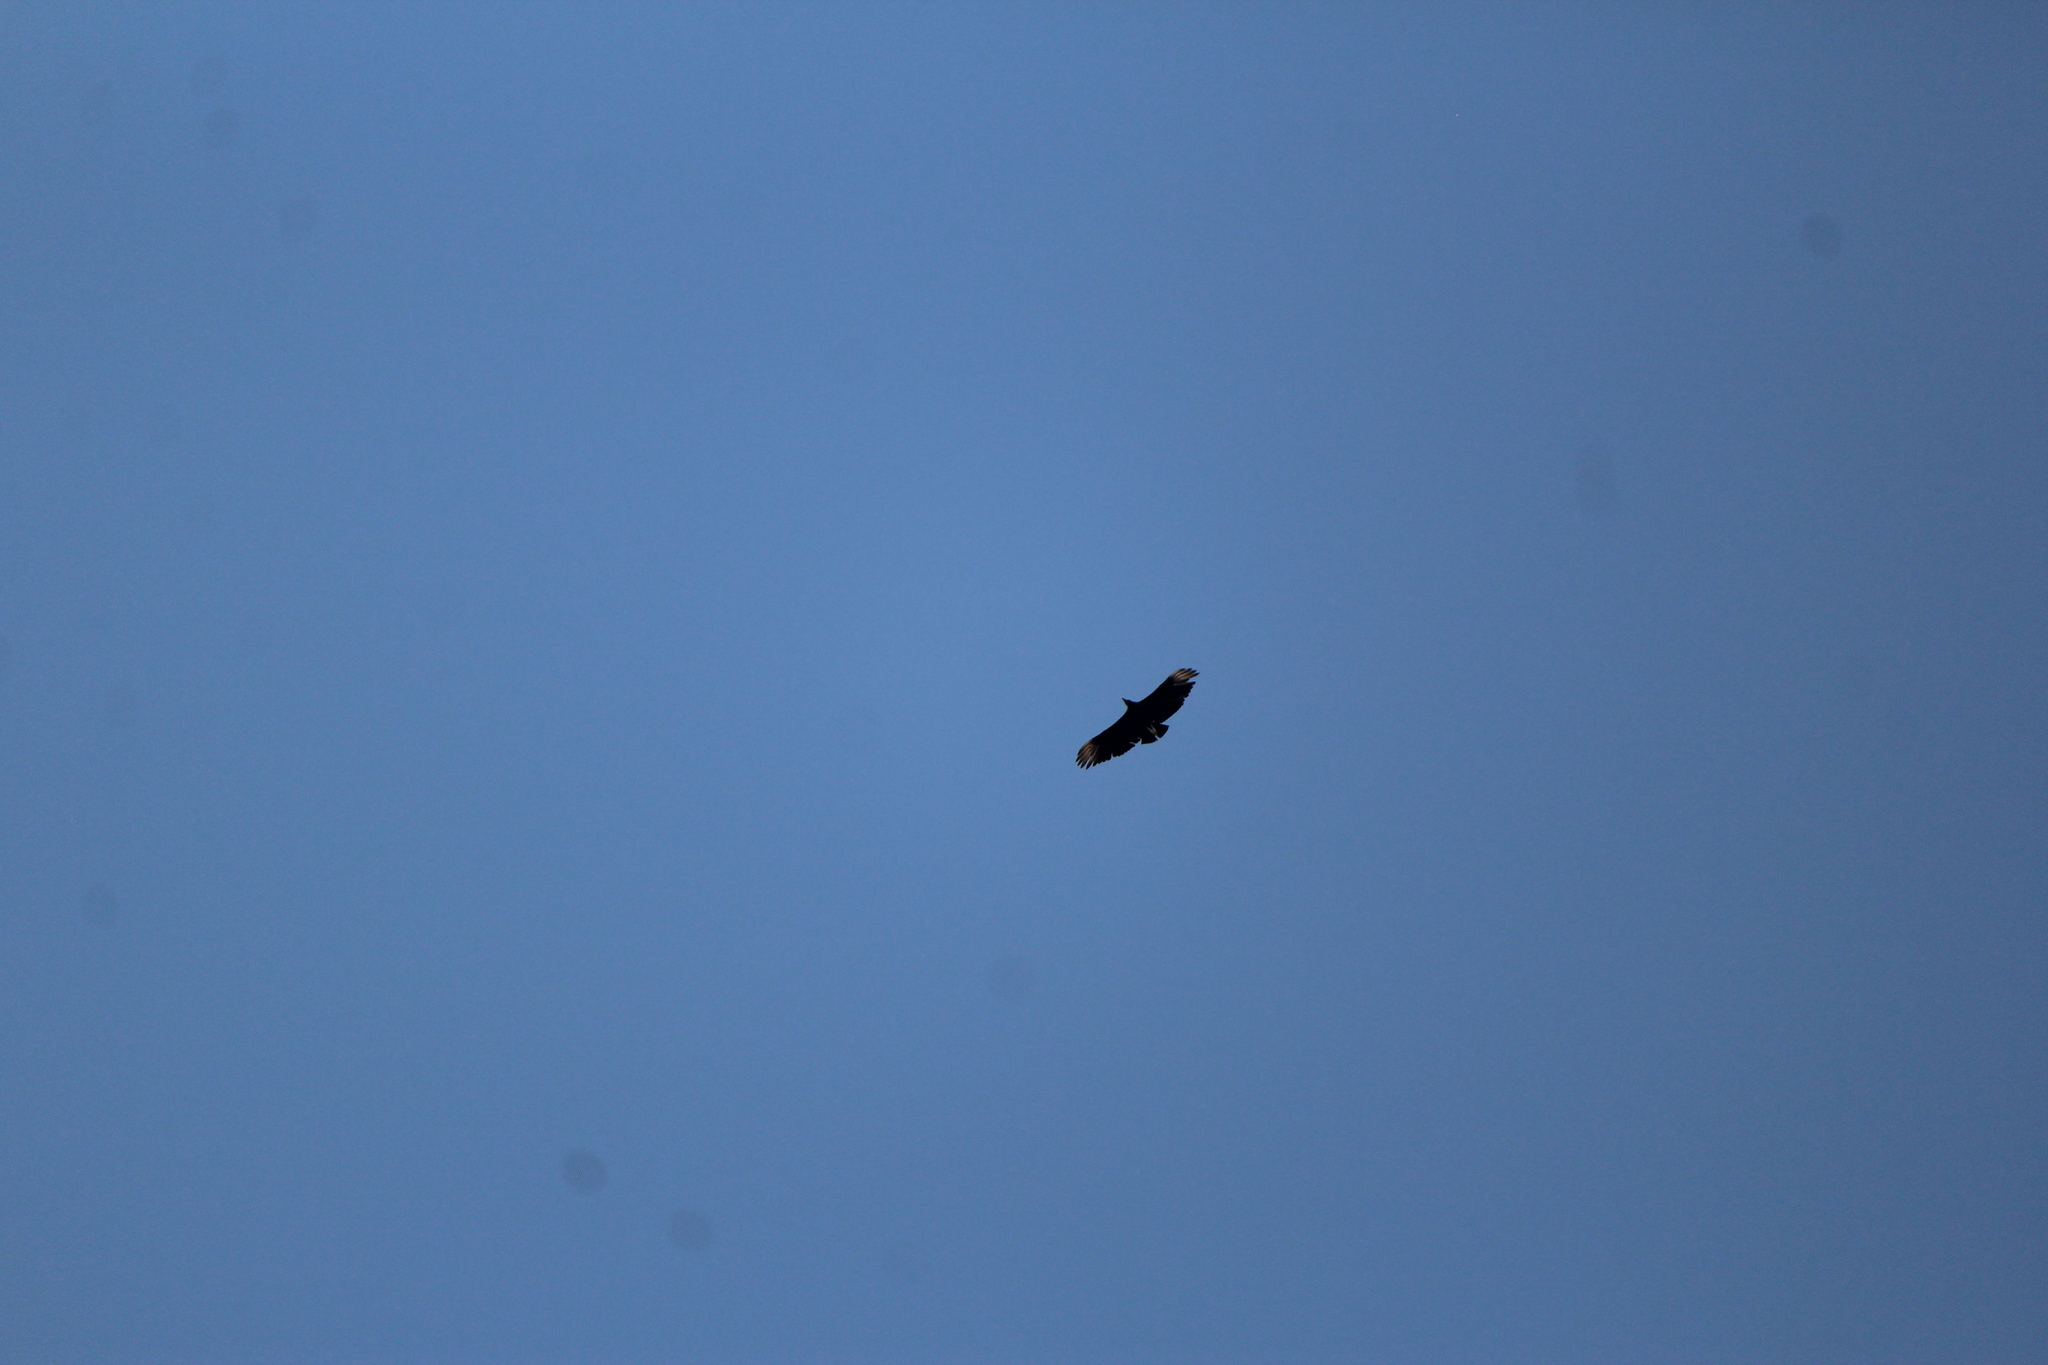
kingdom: Animalia
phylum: Chordata
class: Aves
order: Accipitriformes
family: Cathartidae
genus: Coragyps
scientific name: Coragyps atratus
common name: Black vulture
